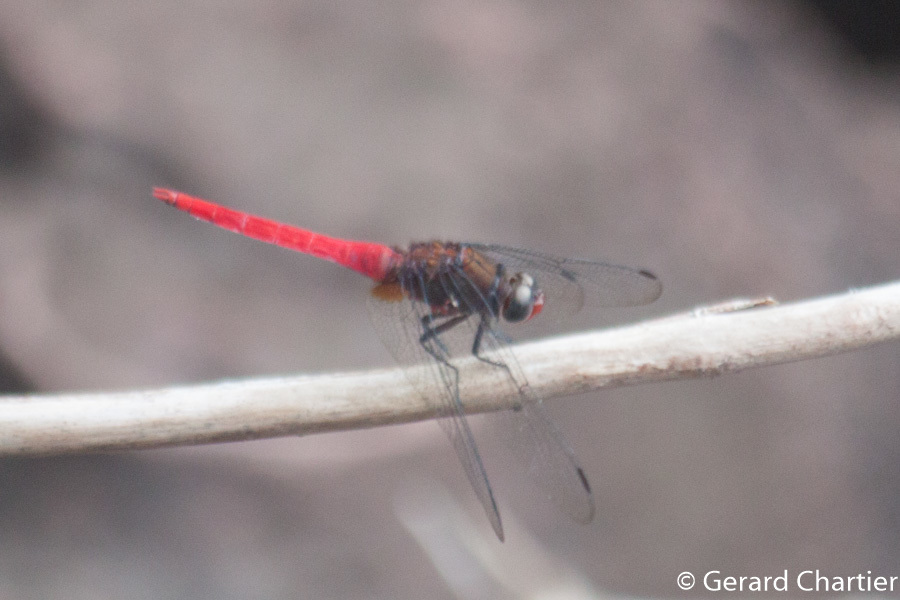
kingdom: Animalia
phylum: Arthropoda
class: Insecta
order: Odonata
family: Libellulidae
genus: Orthetrum
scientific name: Orthetrum chrysis
